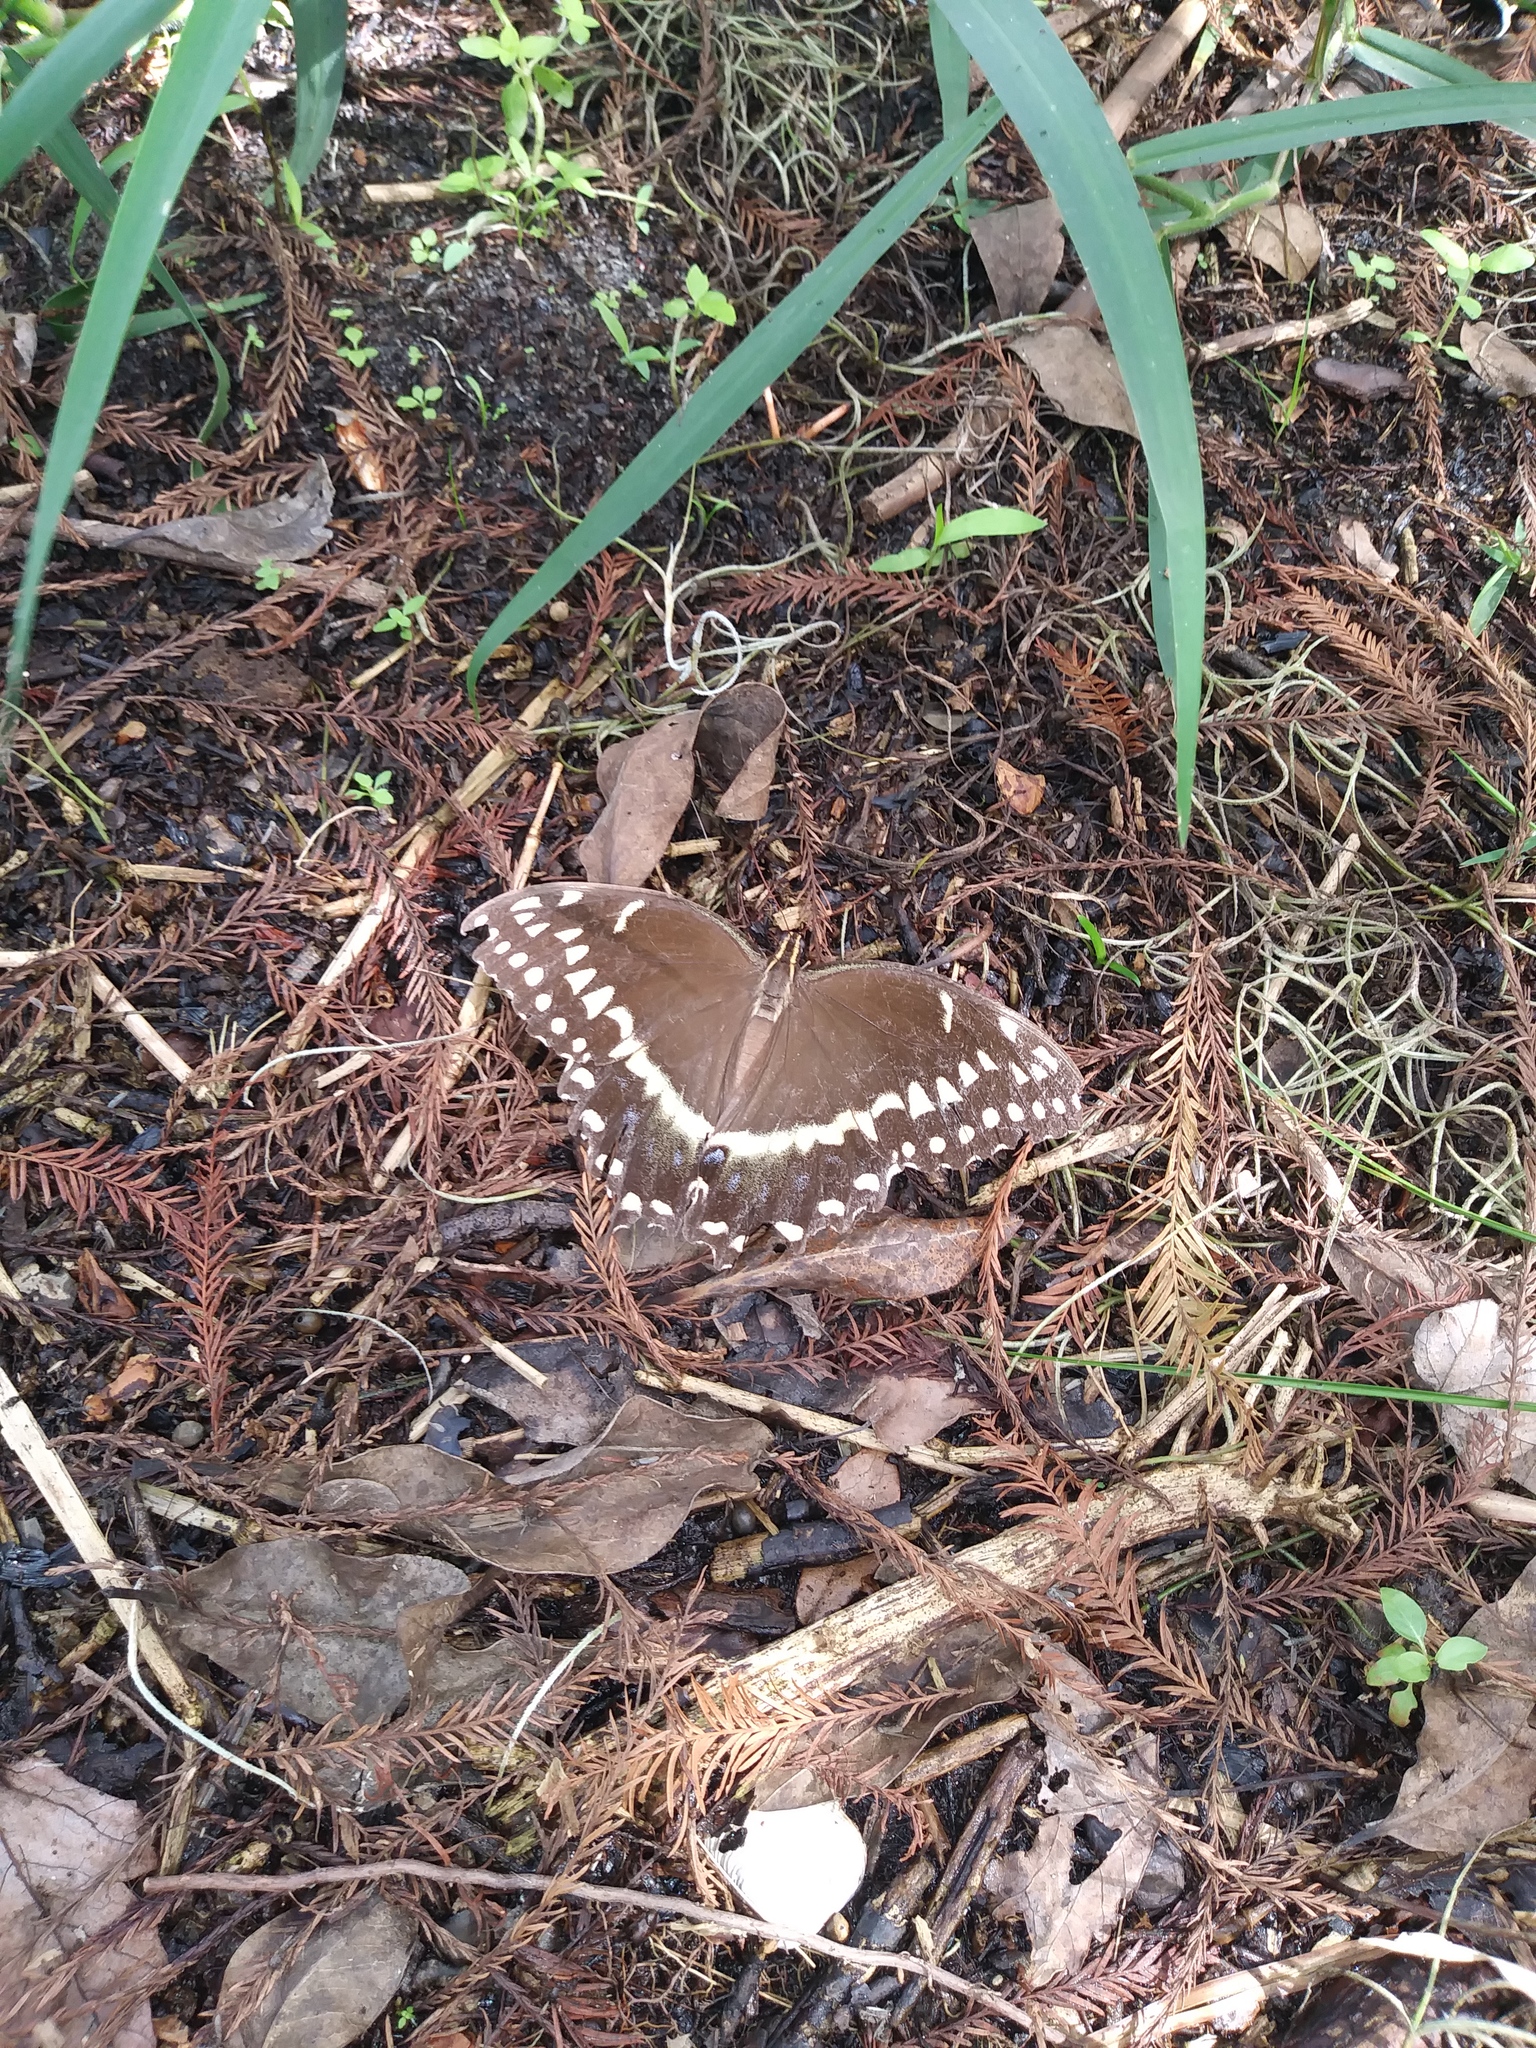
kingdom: Animalia
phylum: Arthropoda
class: Insecta
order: Lepidoptera
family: Papilionidae
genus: Papilio
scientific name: Papilio palamedes
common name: Palamedes swallowtail
